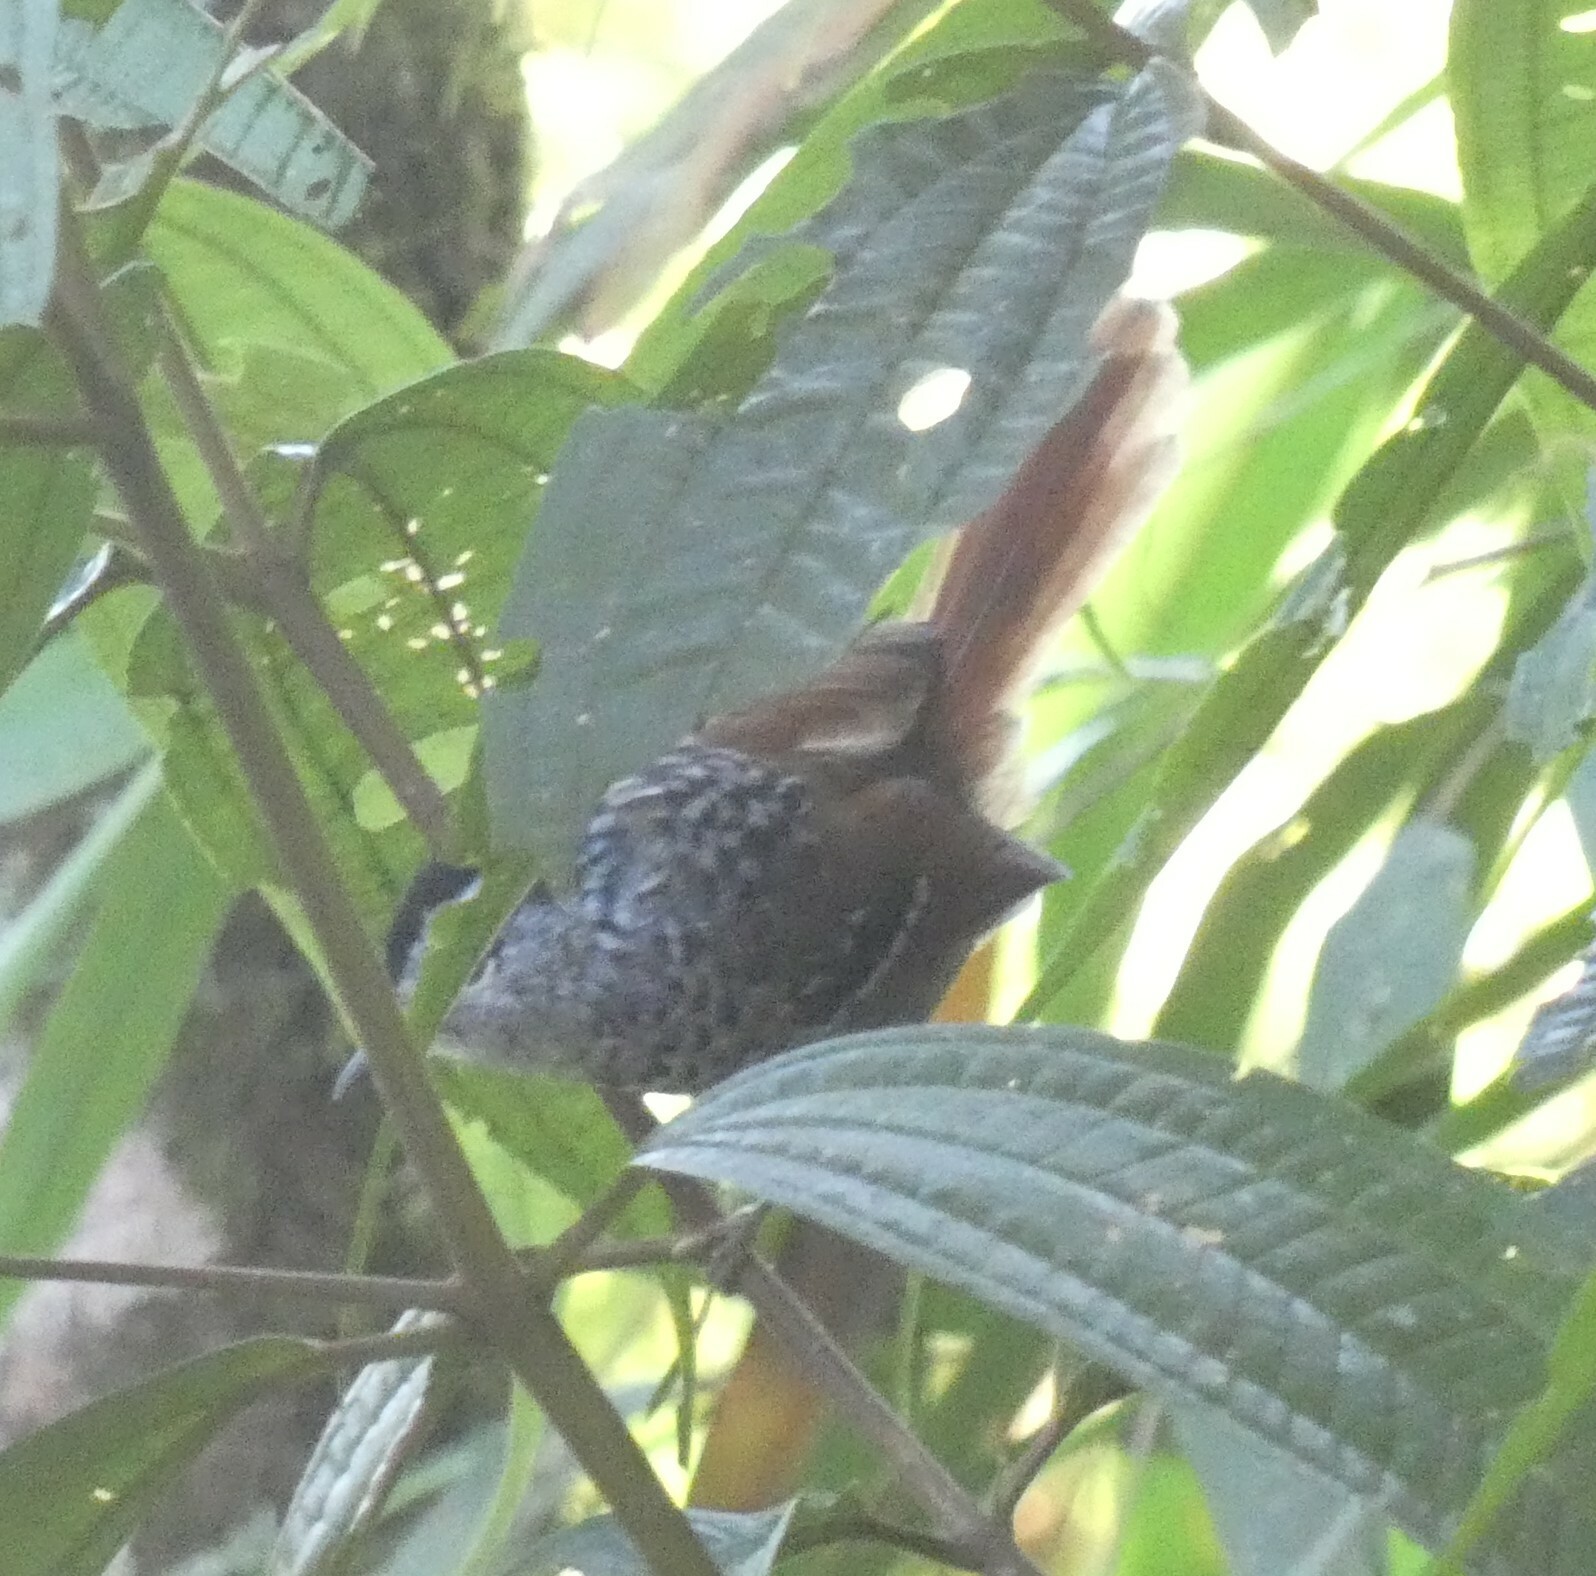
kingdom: Animalia
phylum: Chordata
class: Aves
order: Passeriformes
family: Thamnophilidae
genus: Drymophila
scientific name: Drymophila genei
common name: Rufous-tailed antbird
